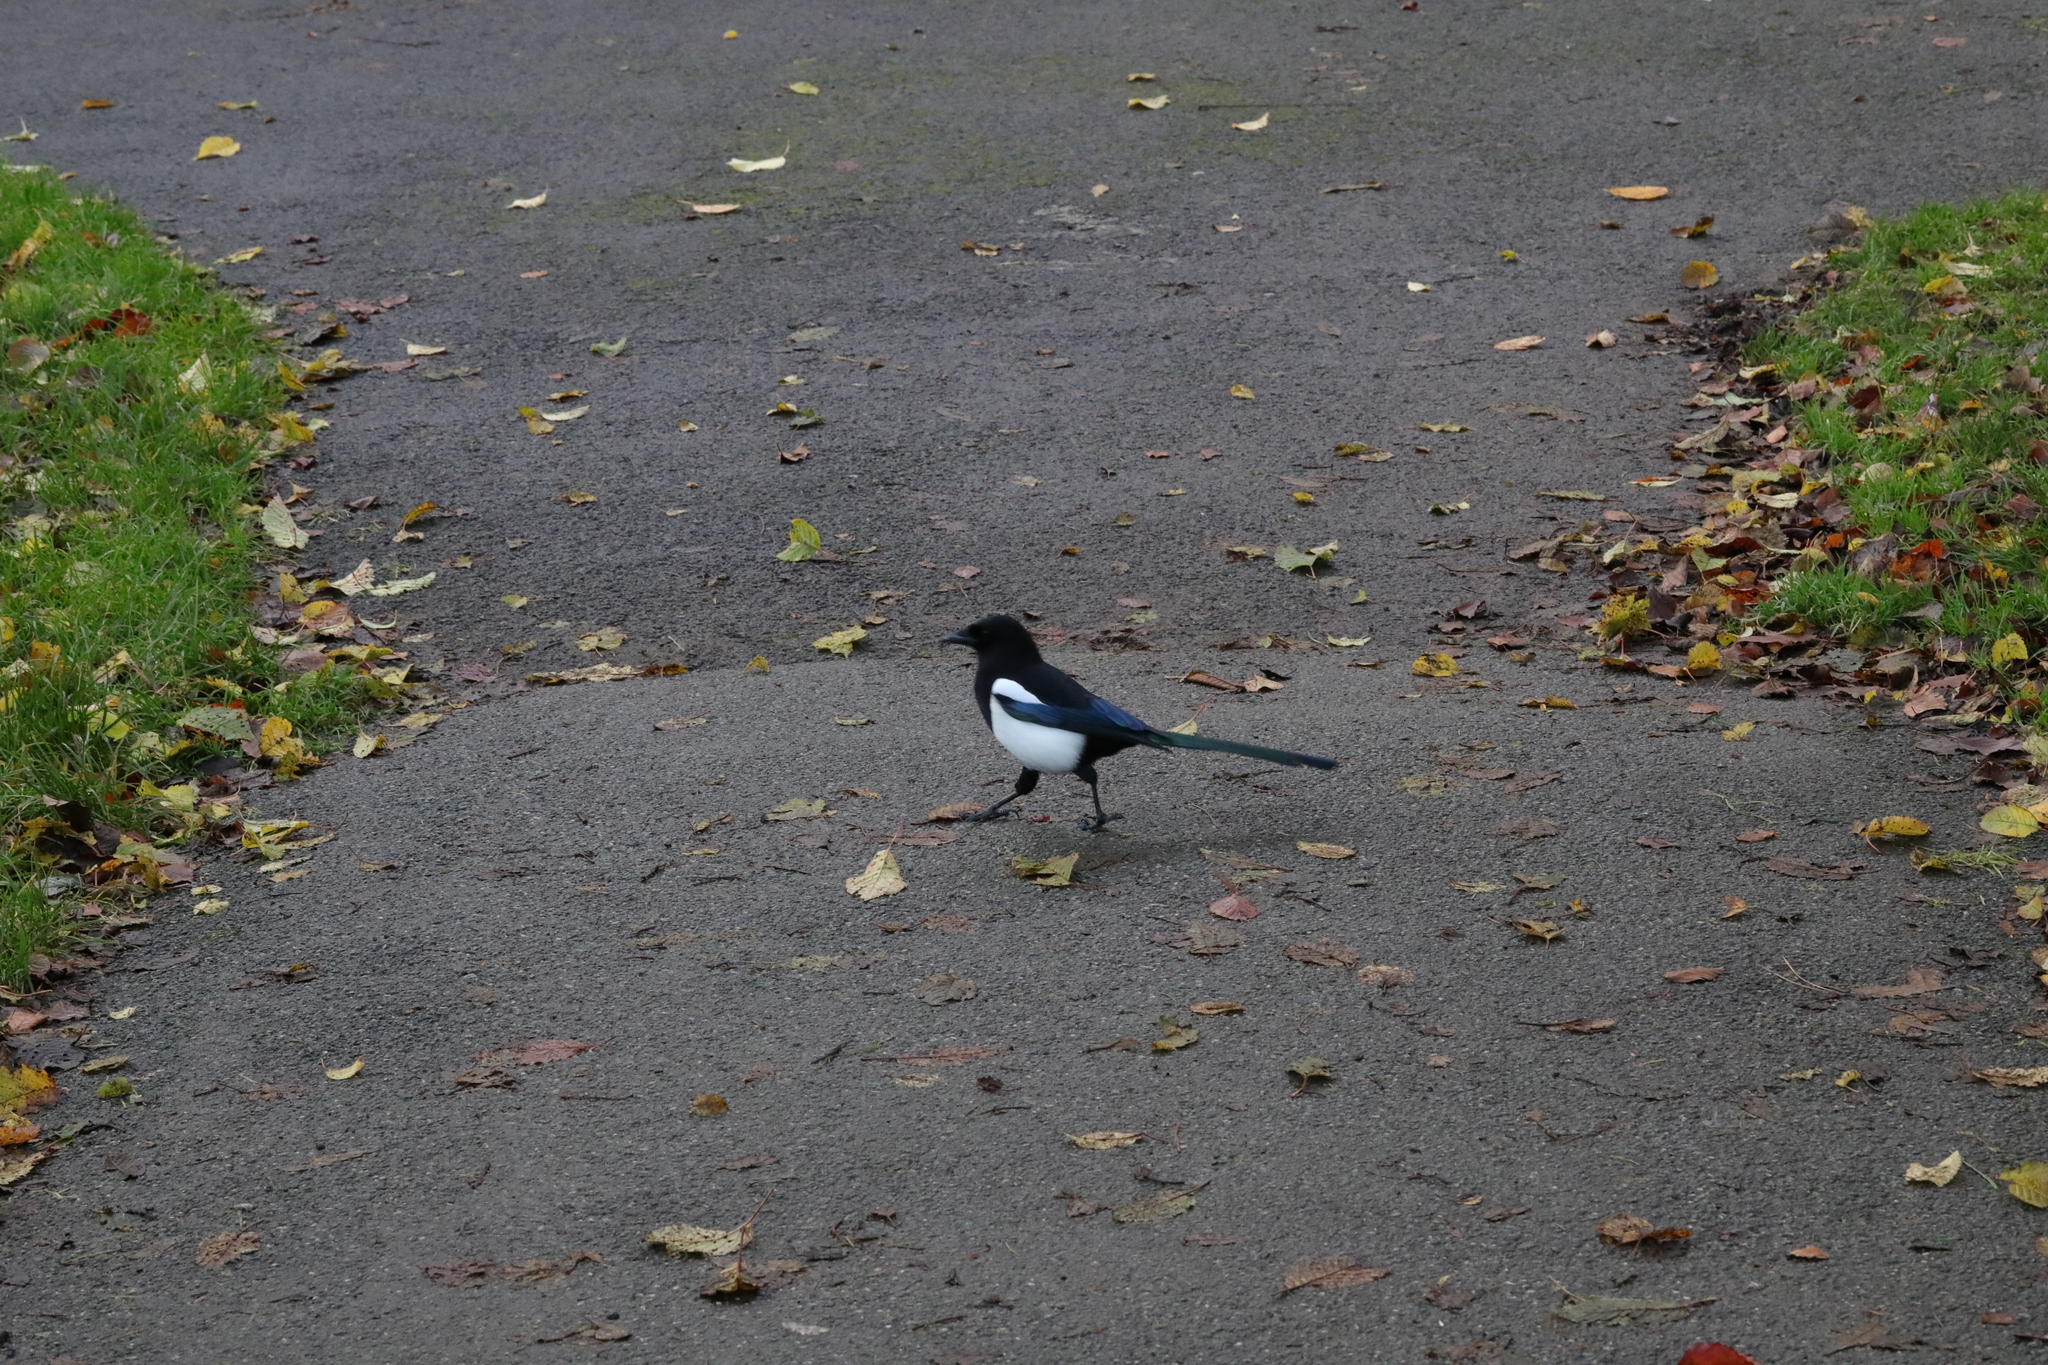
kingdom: Animalia
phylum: Chordata
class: Aves
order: Passeriformes
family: Corvidae
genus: Pica
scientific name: Pica pica
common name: Eurasian magpie
